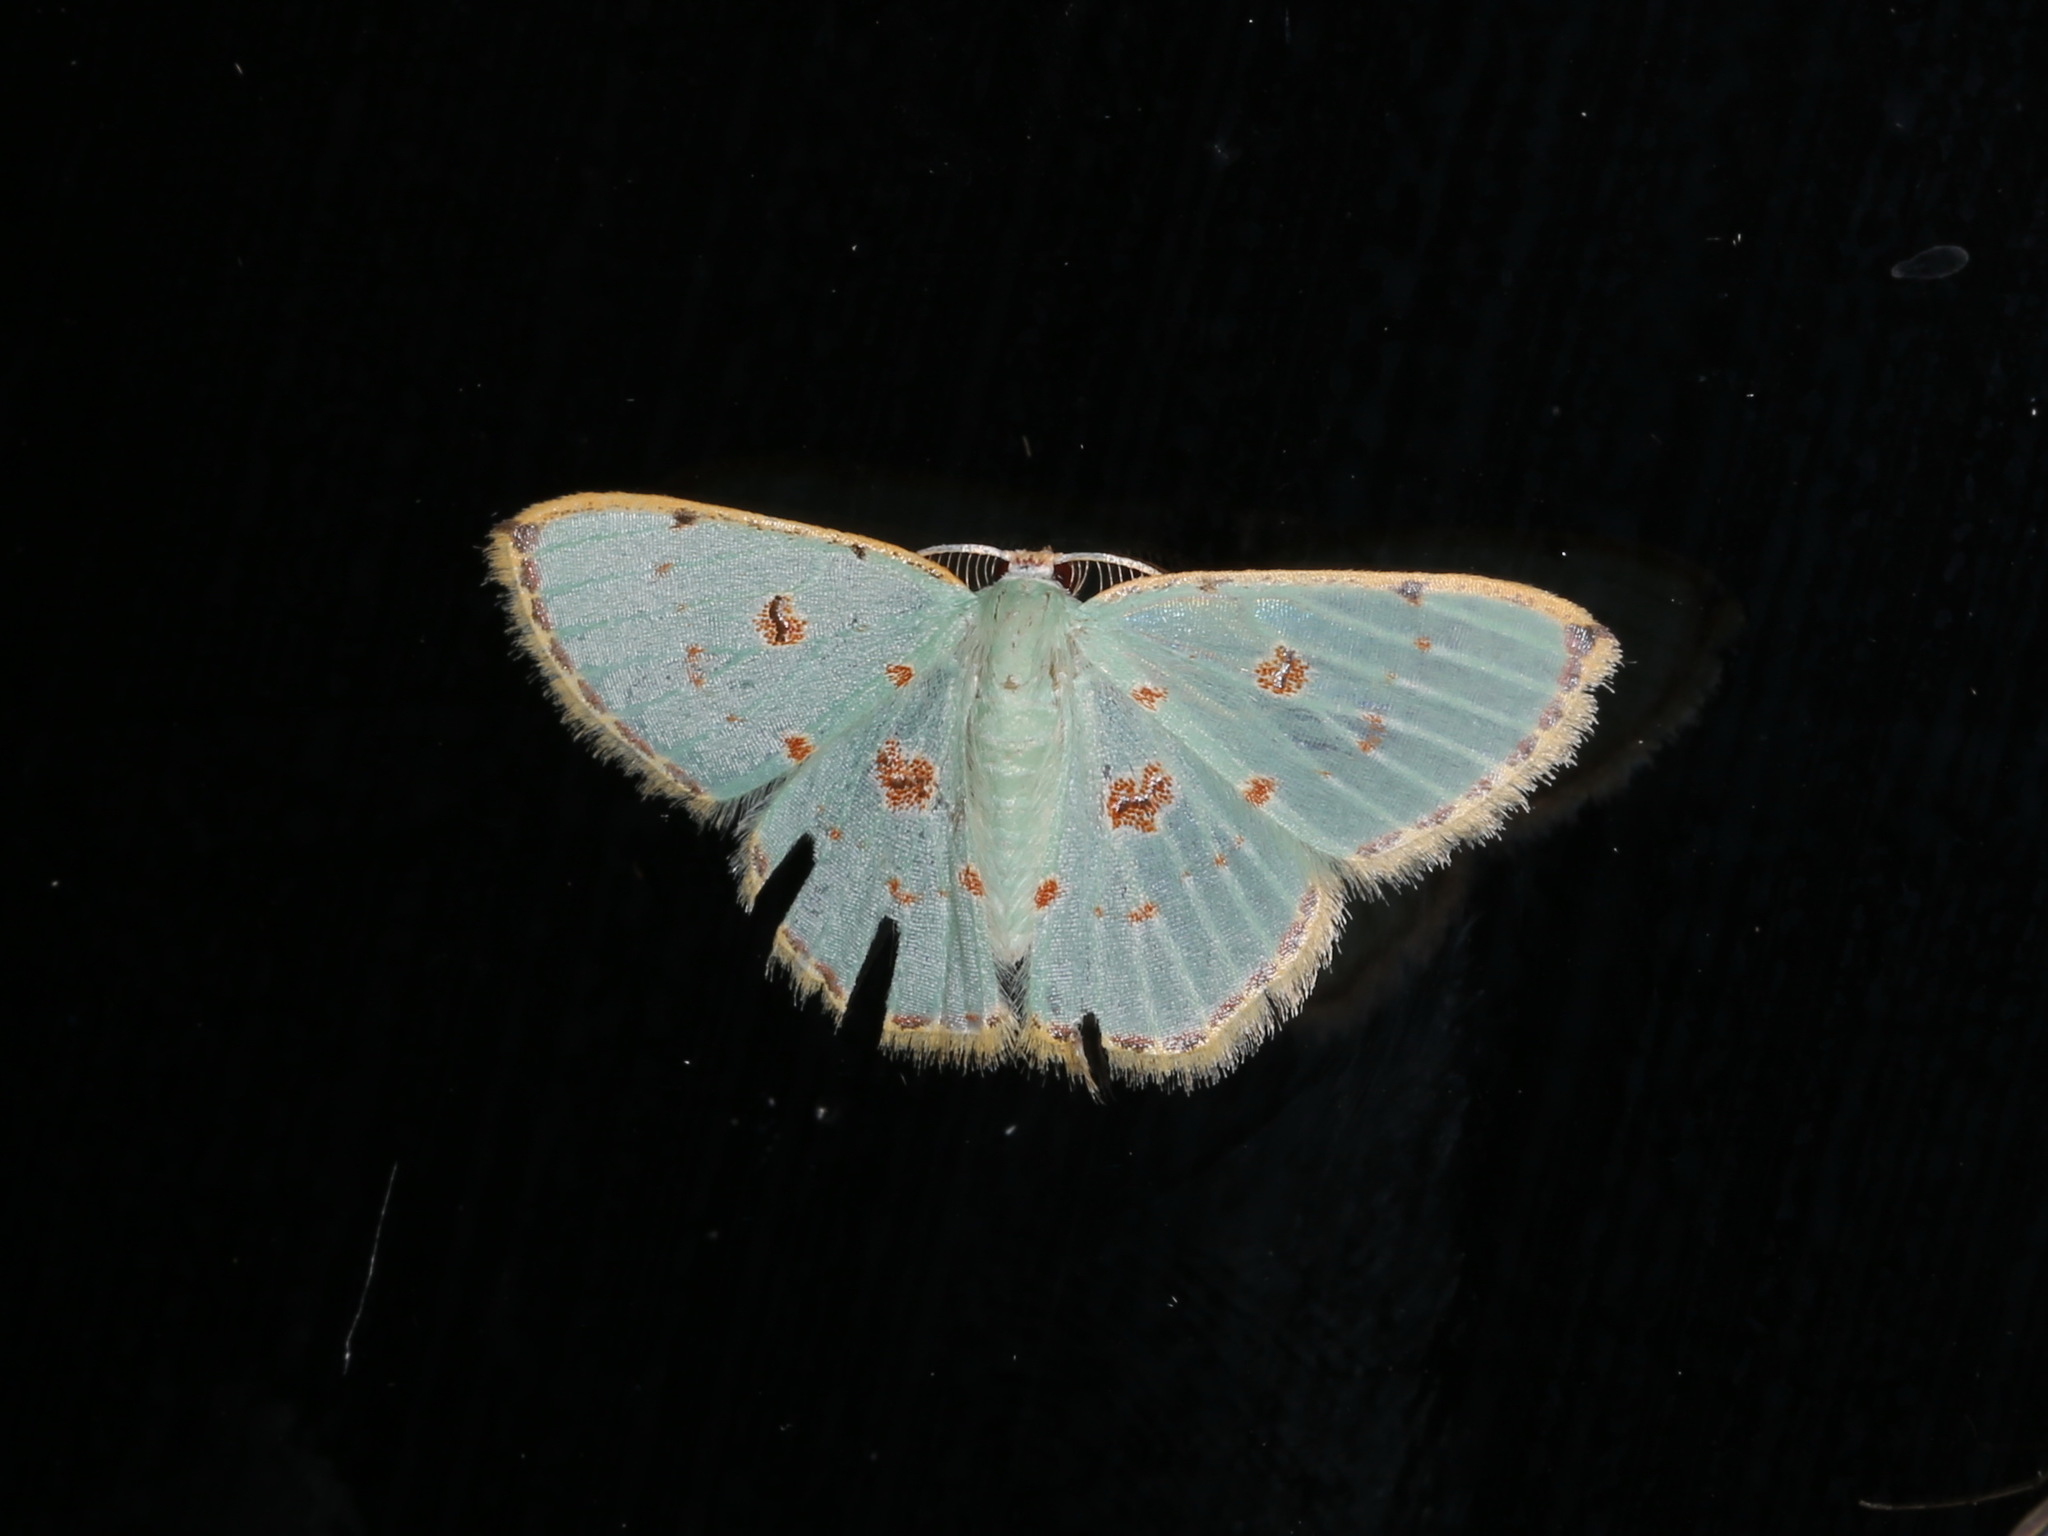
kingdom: Animalia
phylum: Arthropoda
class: Insecta
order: Lepidoptera
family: Geometridae
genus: Comostola
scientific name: Comostola laesaria
